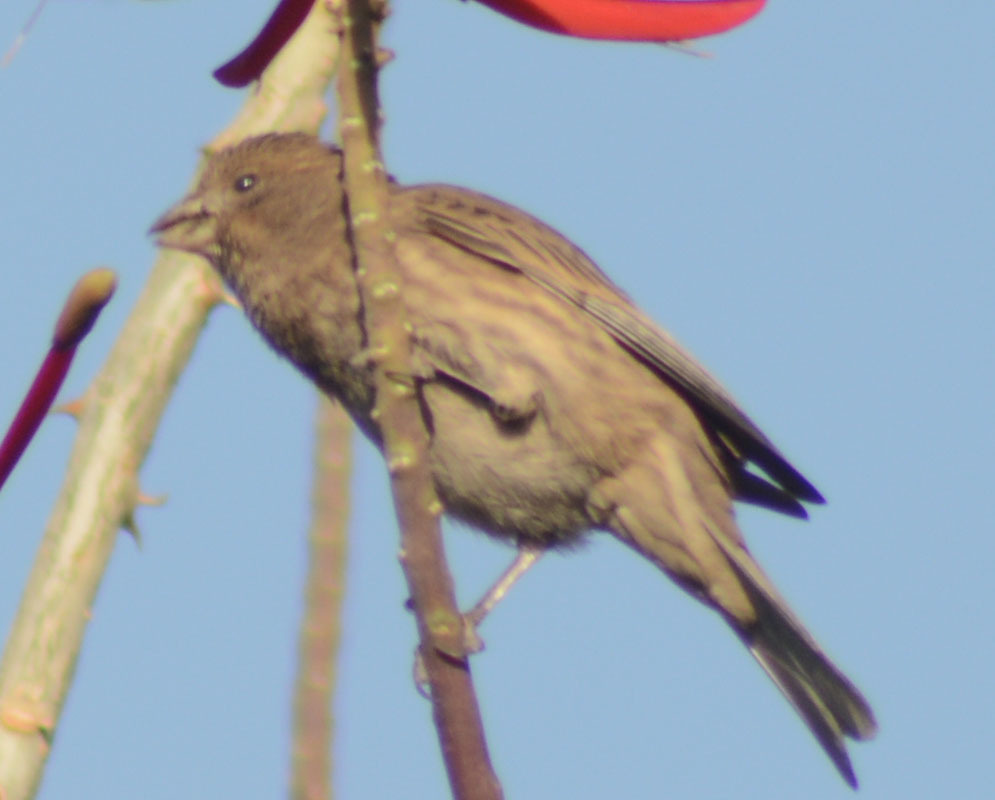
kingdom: Animalia
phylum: Chordata
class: Aves
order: Passeriformes
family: Fringillidae
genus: Haemorhous
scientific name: Haemorhous mexicanus
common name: House finch
